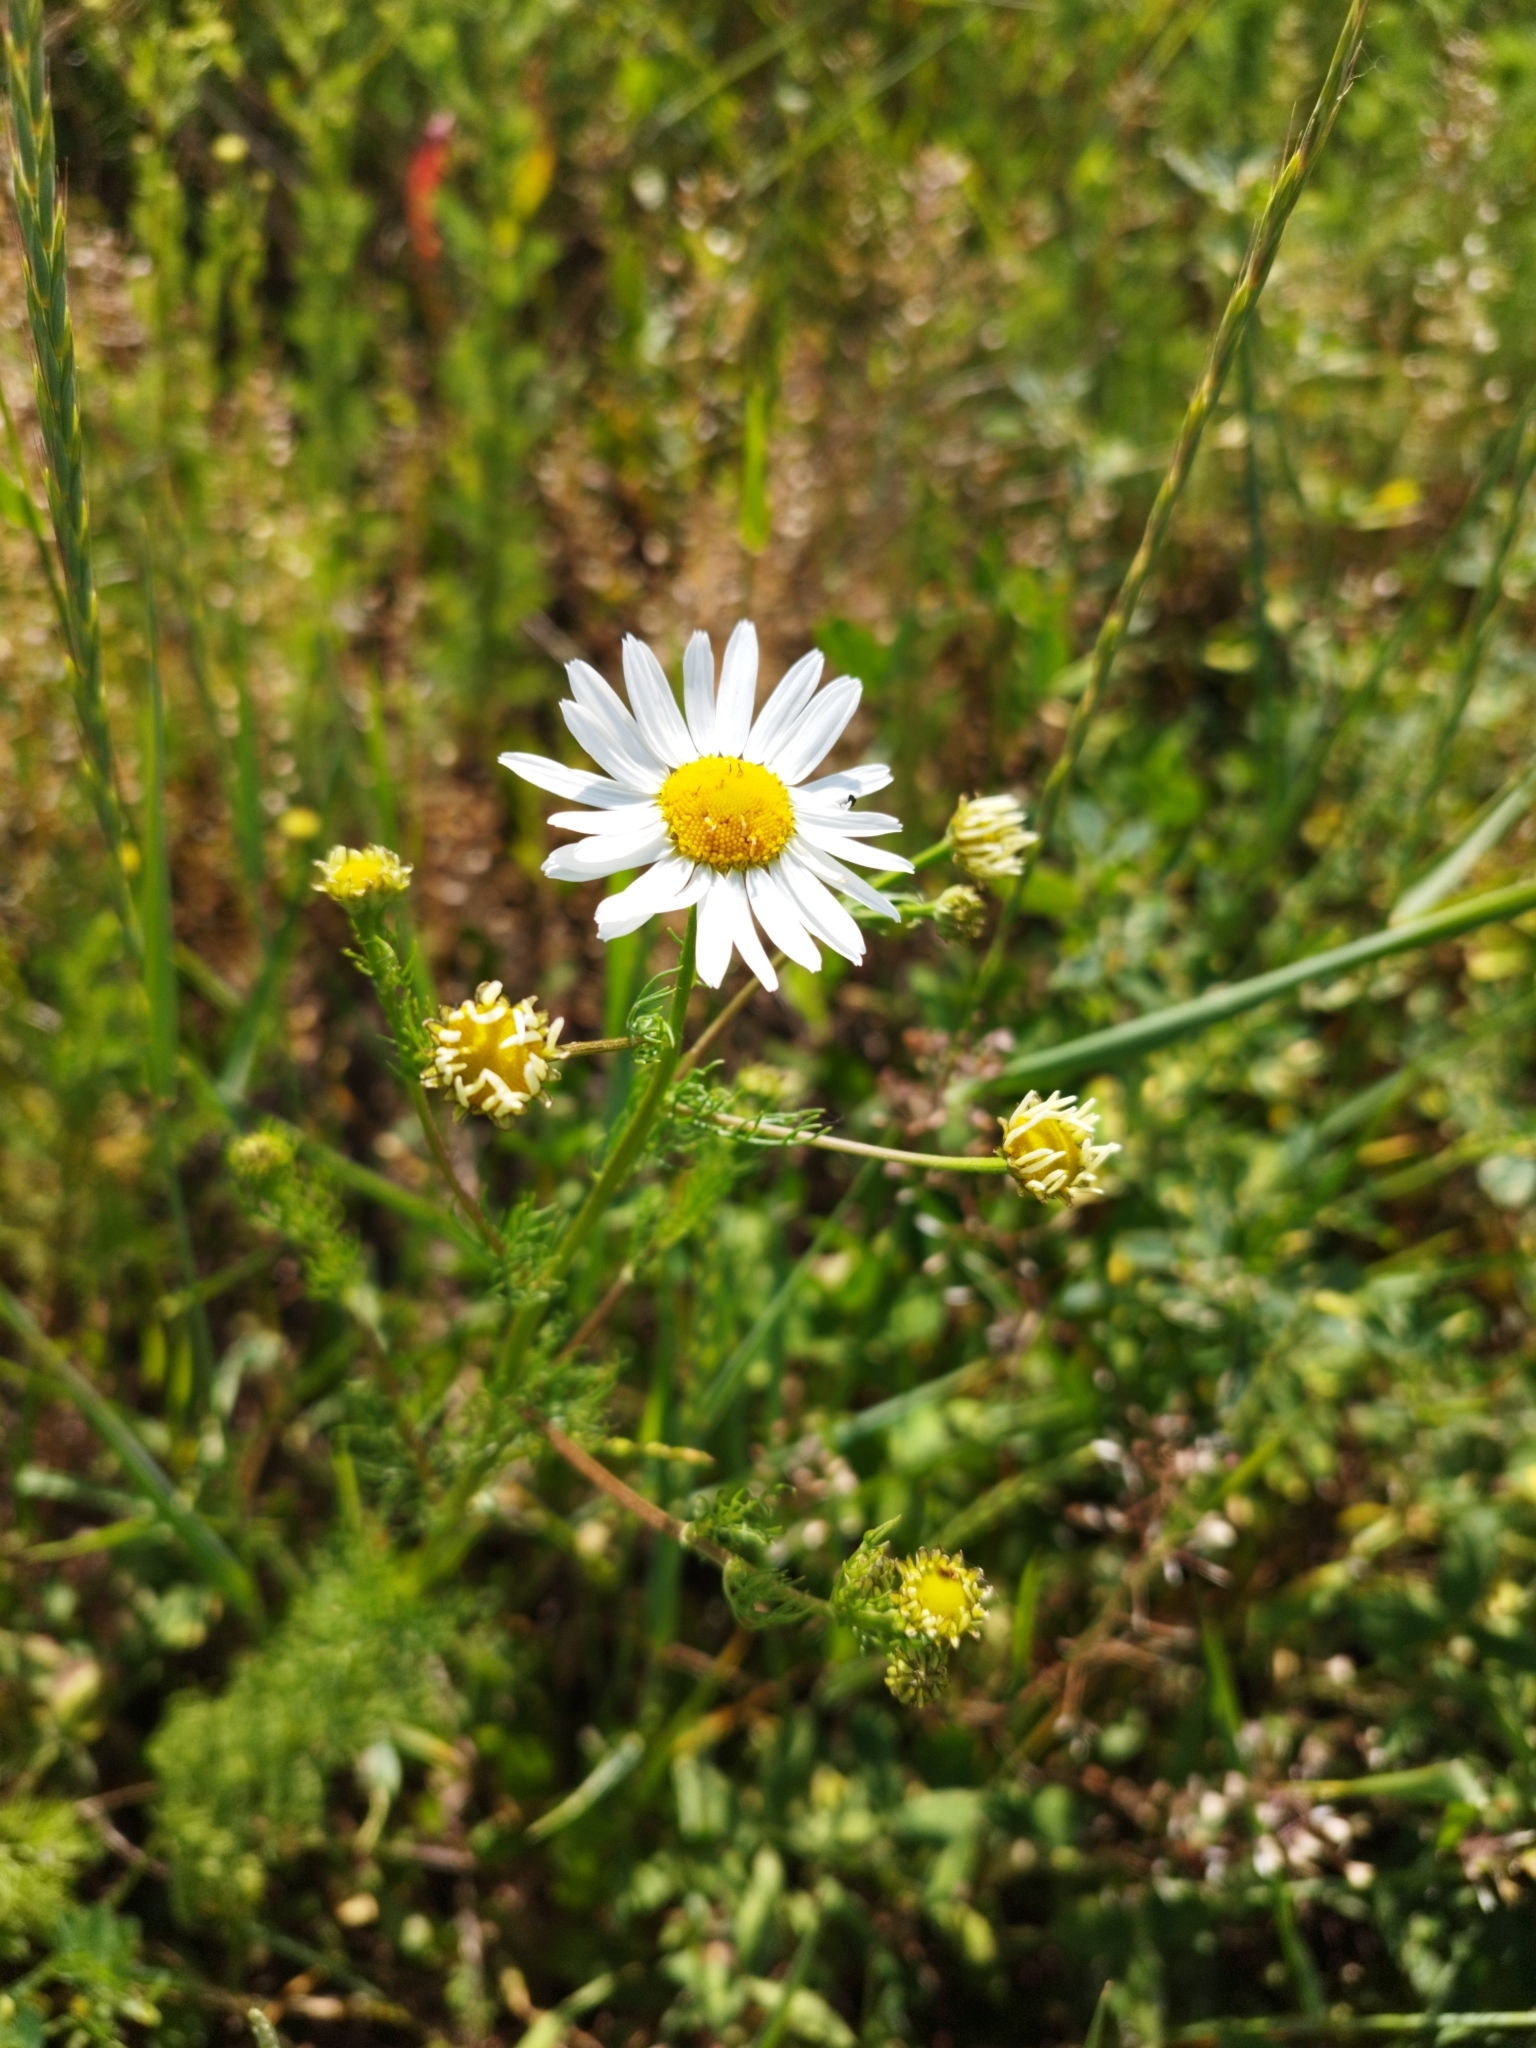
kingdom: Plantae
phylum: Tracheophyta
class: Magnoliopsida
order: Asterales
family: Asteraceae
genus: Tripleurospermum
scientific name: Tripleurospermum inodorum
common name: Scentless mayweed
